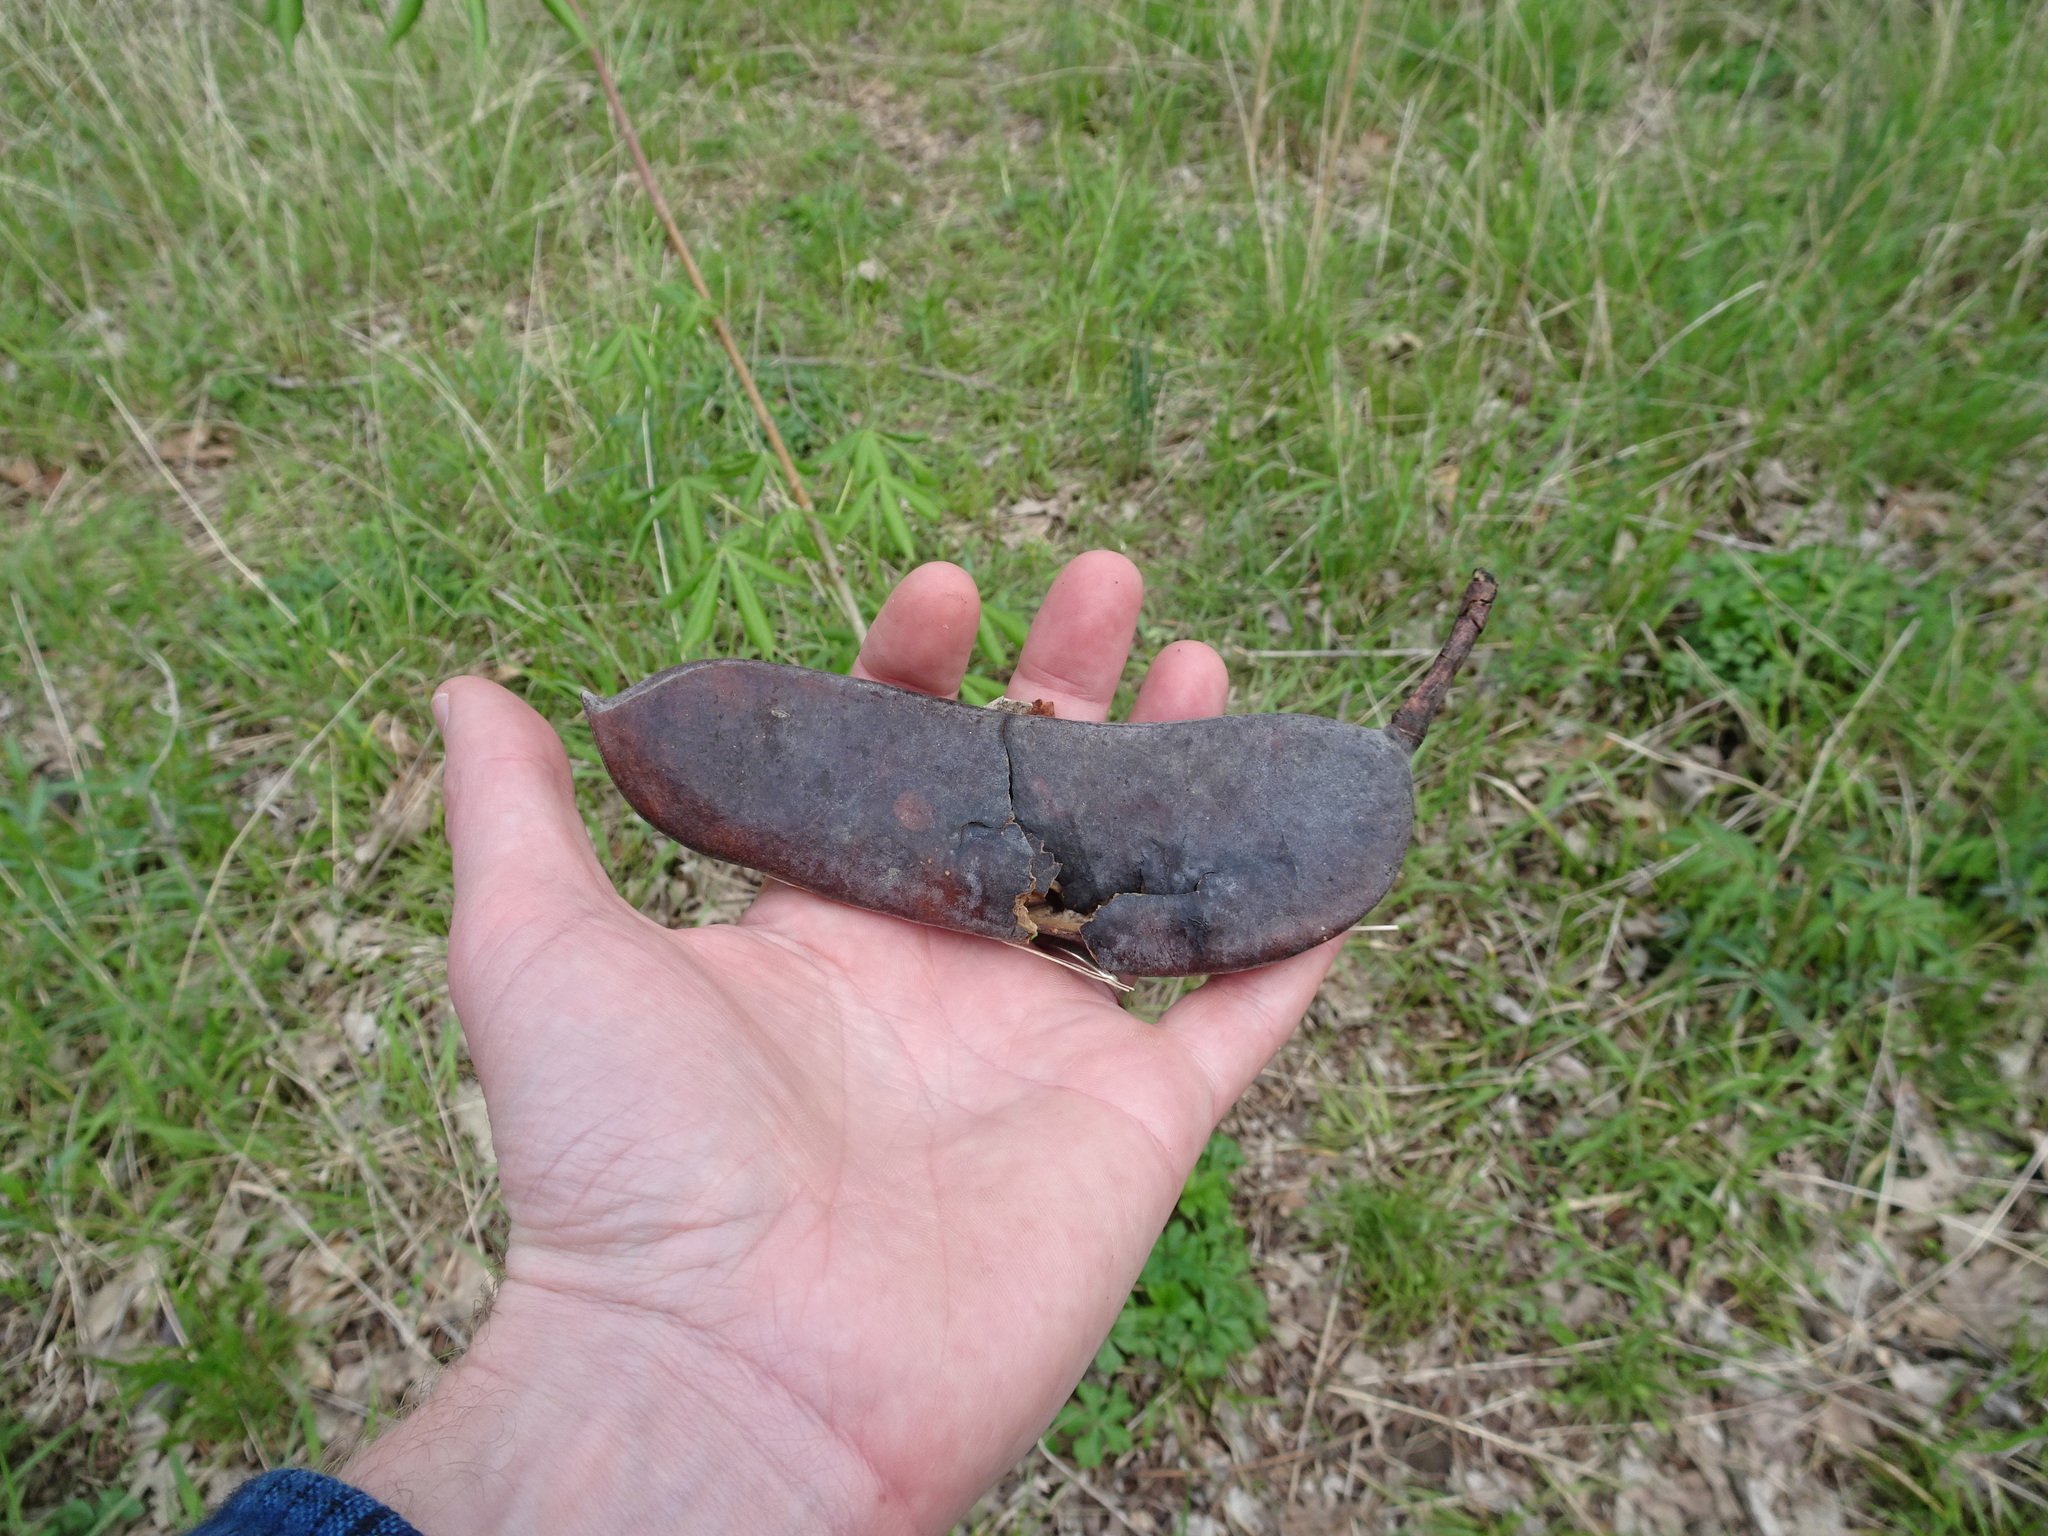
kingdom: Plantae
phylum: Tracheophyta
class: Magnoliopsida
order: Fabales
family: Fabaceae
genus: Gymnocladus
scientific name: Gymnocladus dioicus
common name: Kentucky coffee-tree
